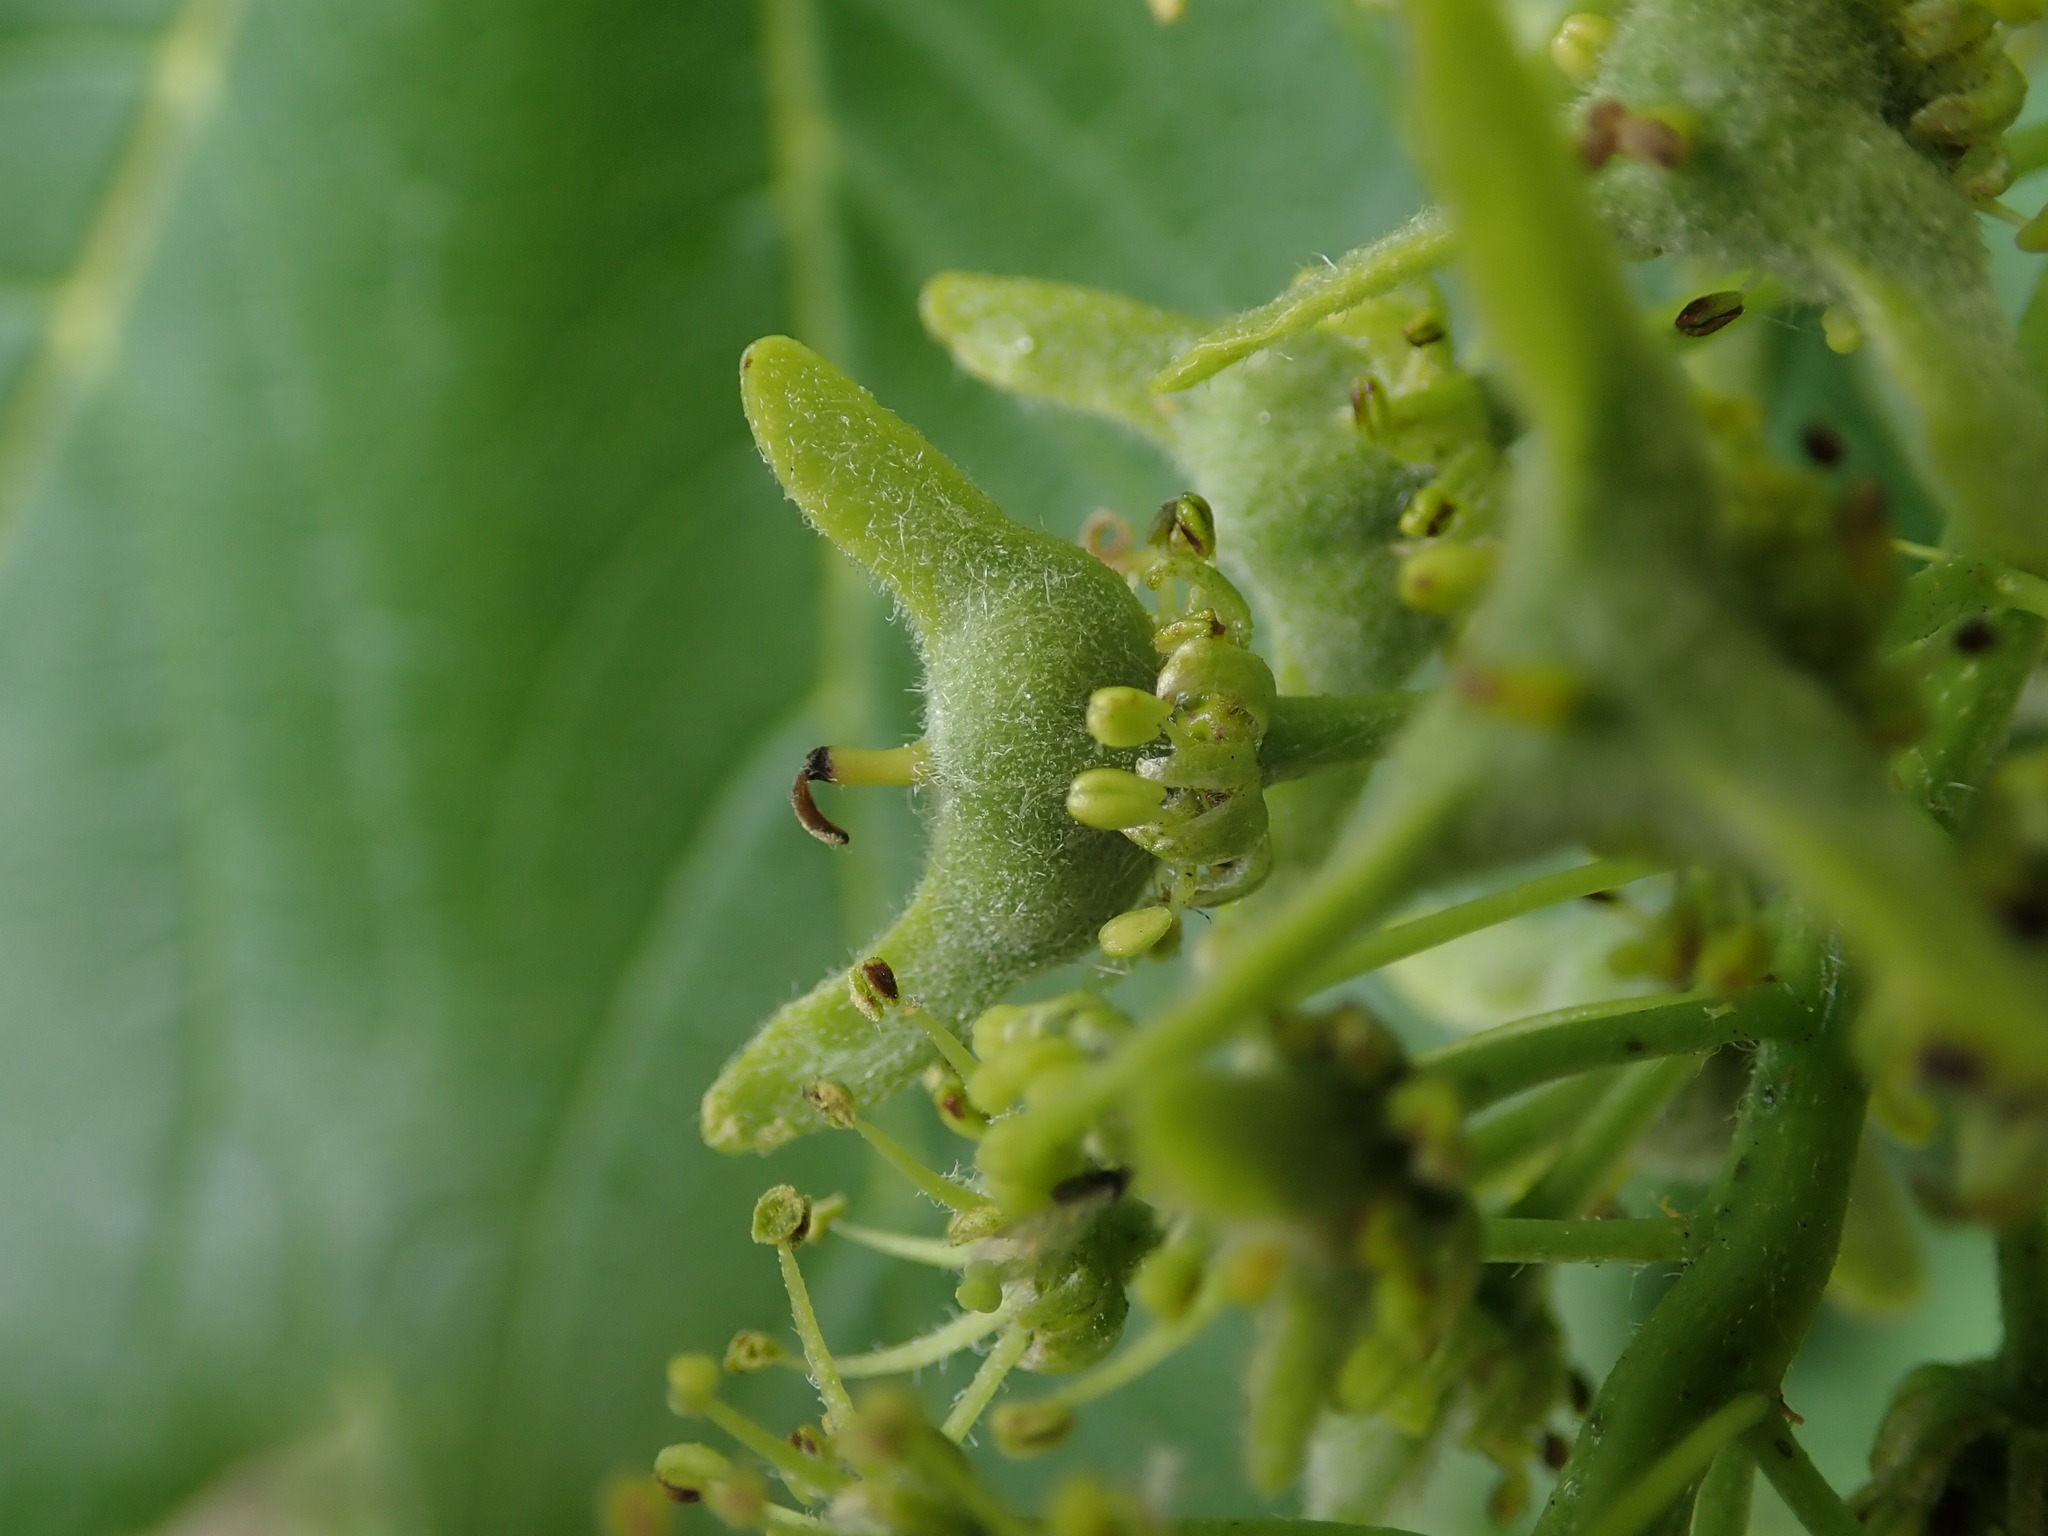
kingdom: Plantae
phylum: Tracheophyta
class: Magnoliopsida
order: Sapindales
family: Sapindaceae
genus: Acer
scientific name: Acer pseudoplatanus
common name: Sycamore
